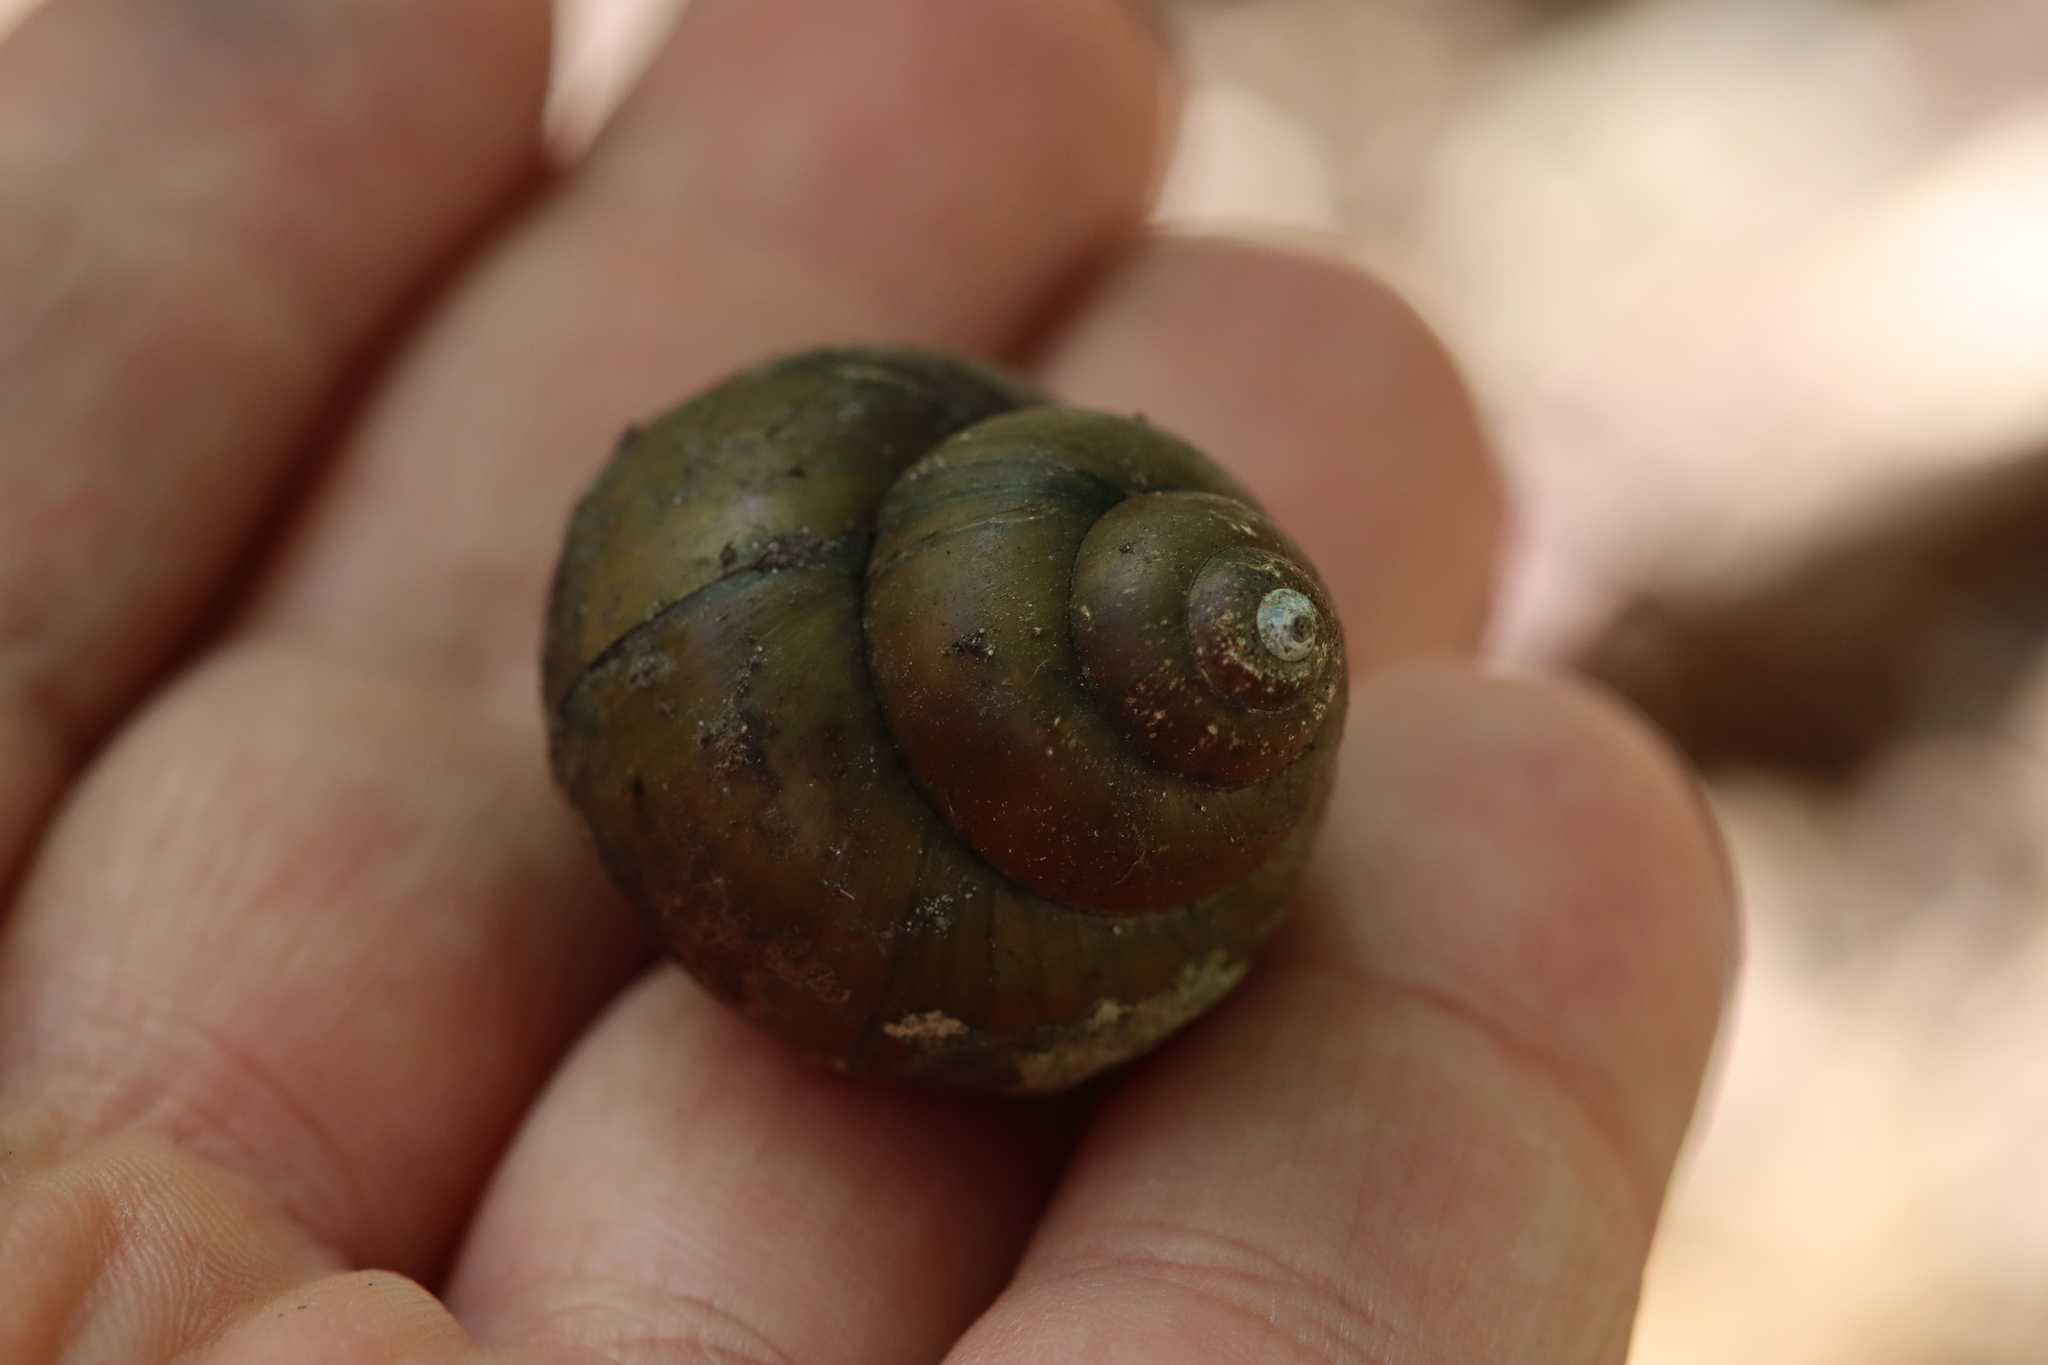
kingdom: Animalia
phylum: Mollusca
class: Gastropoda
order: Architaenioglossa
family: Viviparidae
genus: Cipangopaludina
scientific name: Cipangopaludina chinensis
